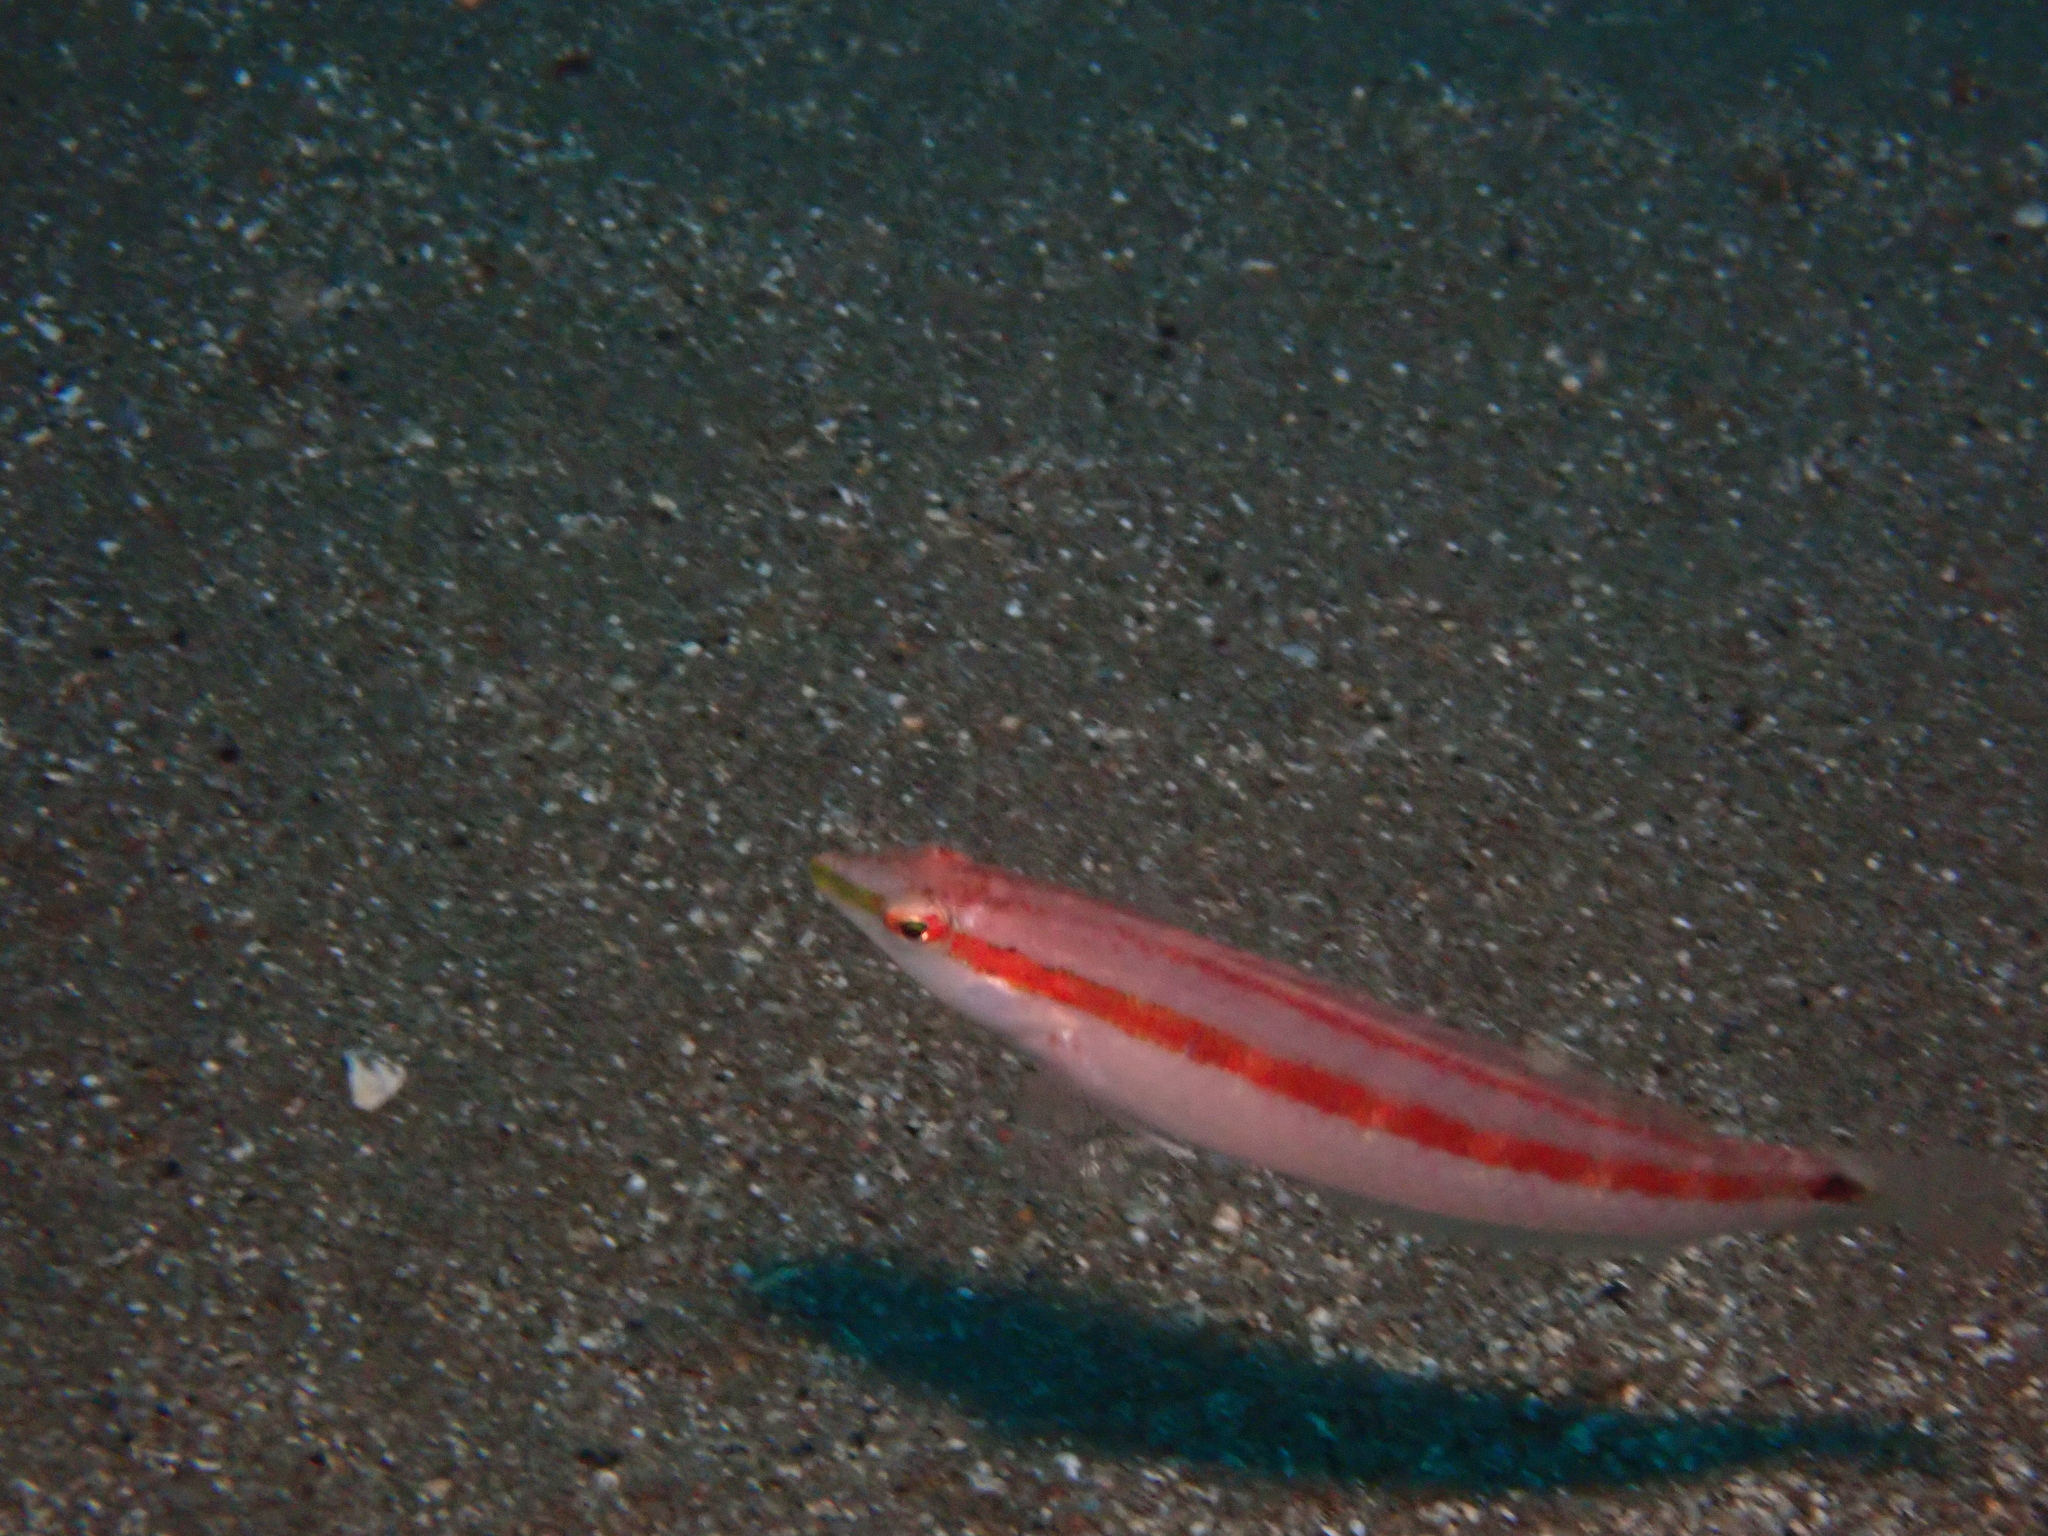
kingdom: Animalia
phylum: Chordata
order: Perciformes
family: Labridae
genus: Coris
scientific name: Coris dorsomacula
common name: Pale-barred coris
